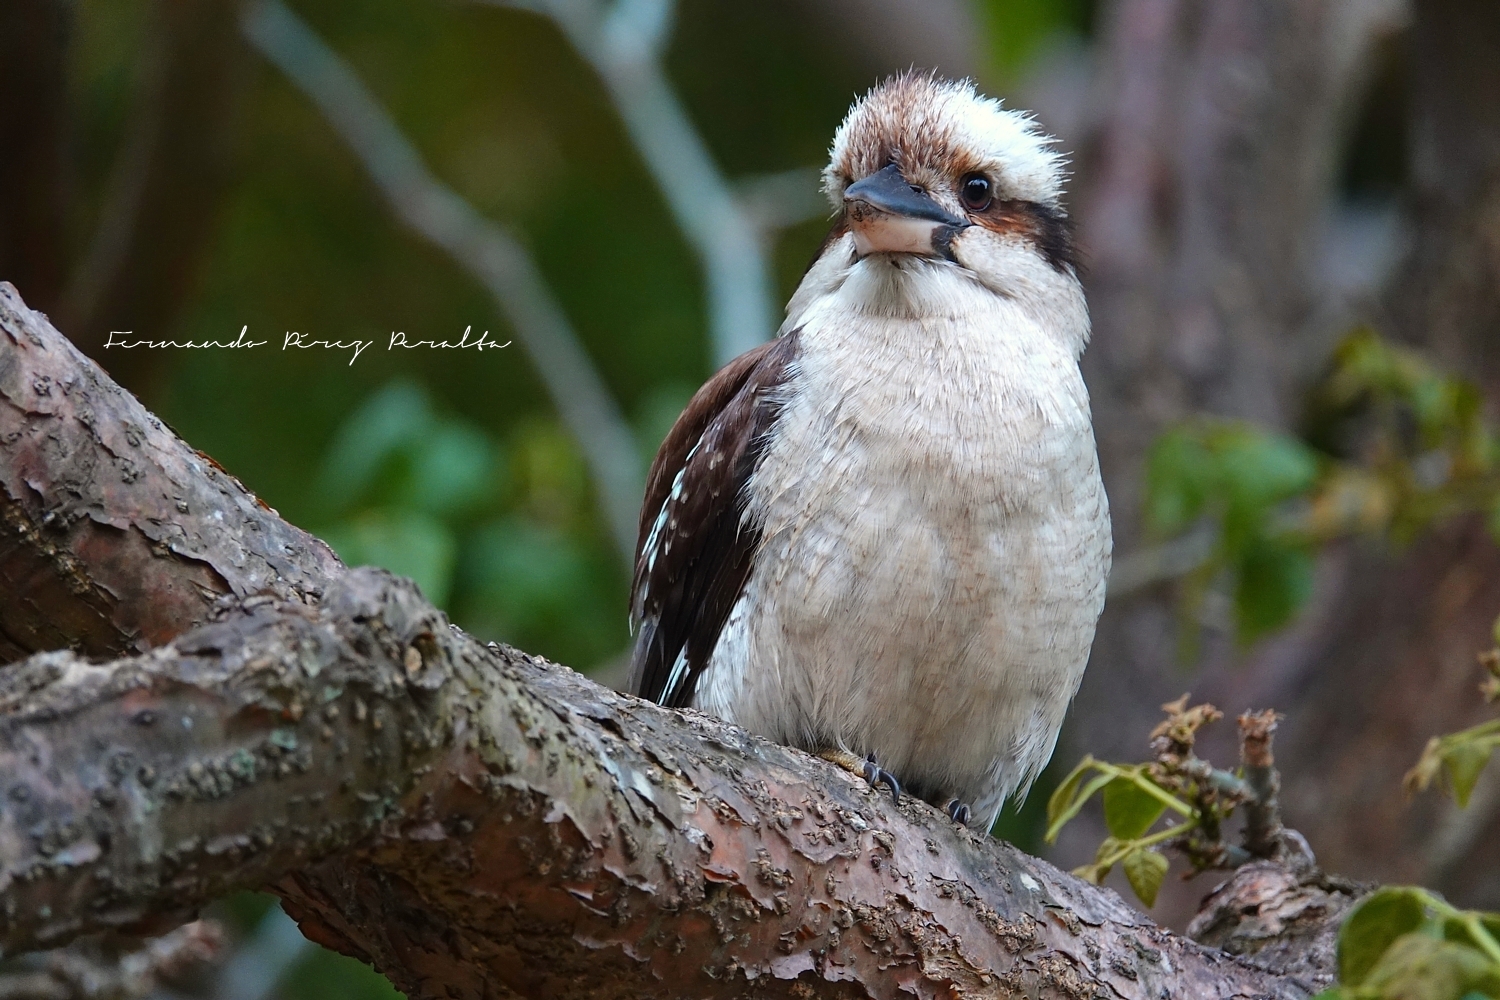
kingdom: Animalia
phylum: Chordata
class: Aves
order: Coraciiformes
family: Alcedinidae
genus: Dacelo
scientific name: Dacelo novaeguineae
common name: Laughing kookaburra
